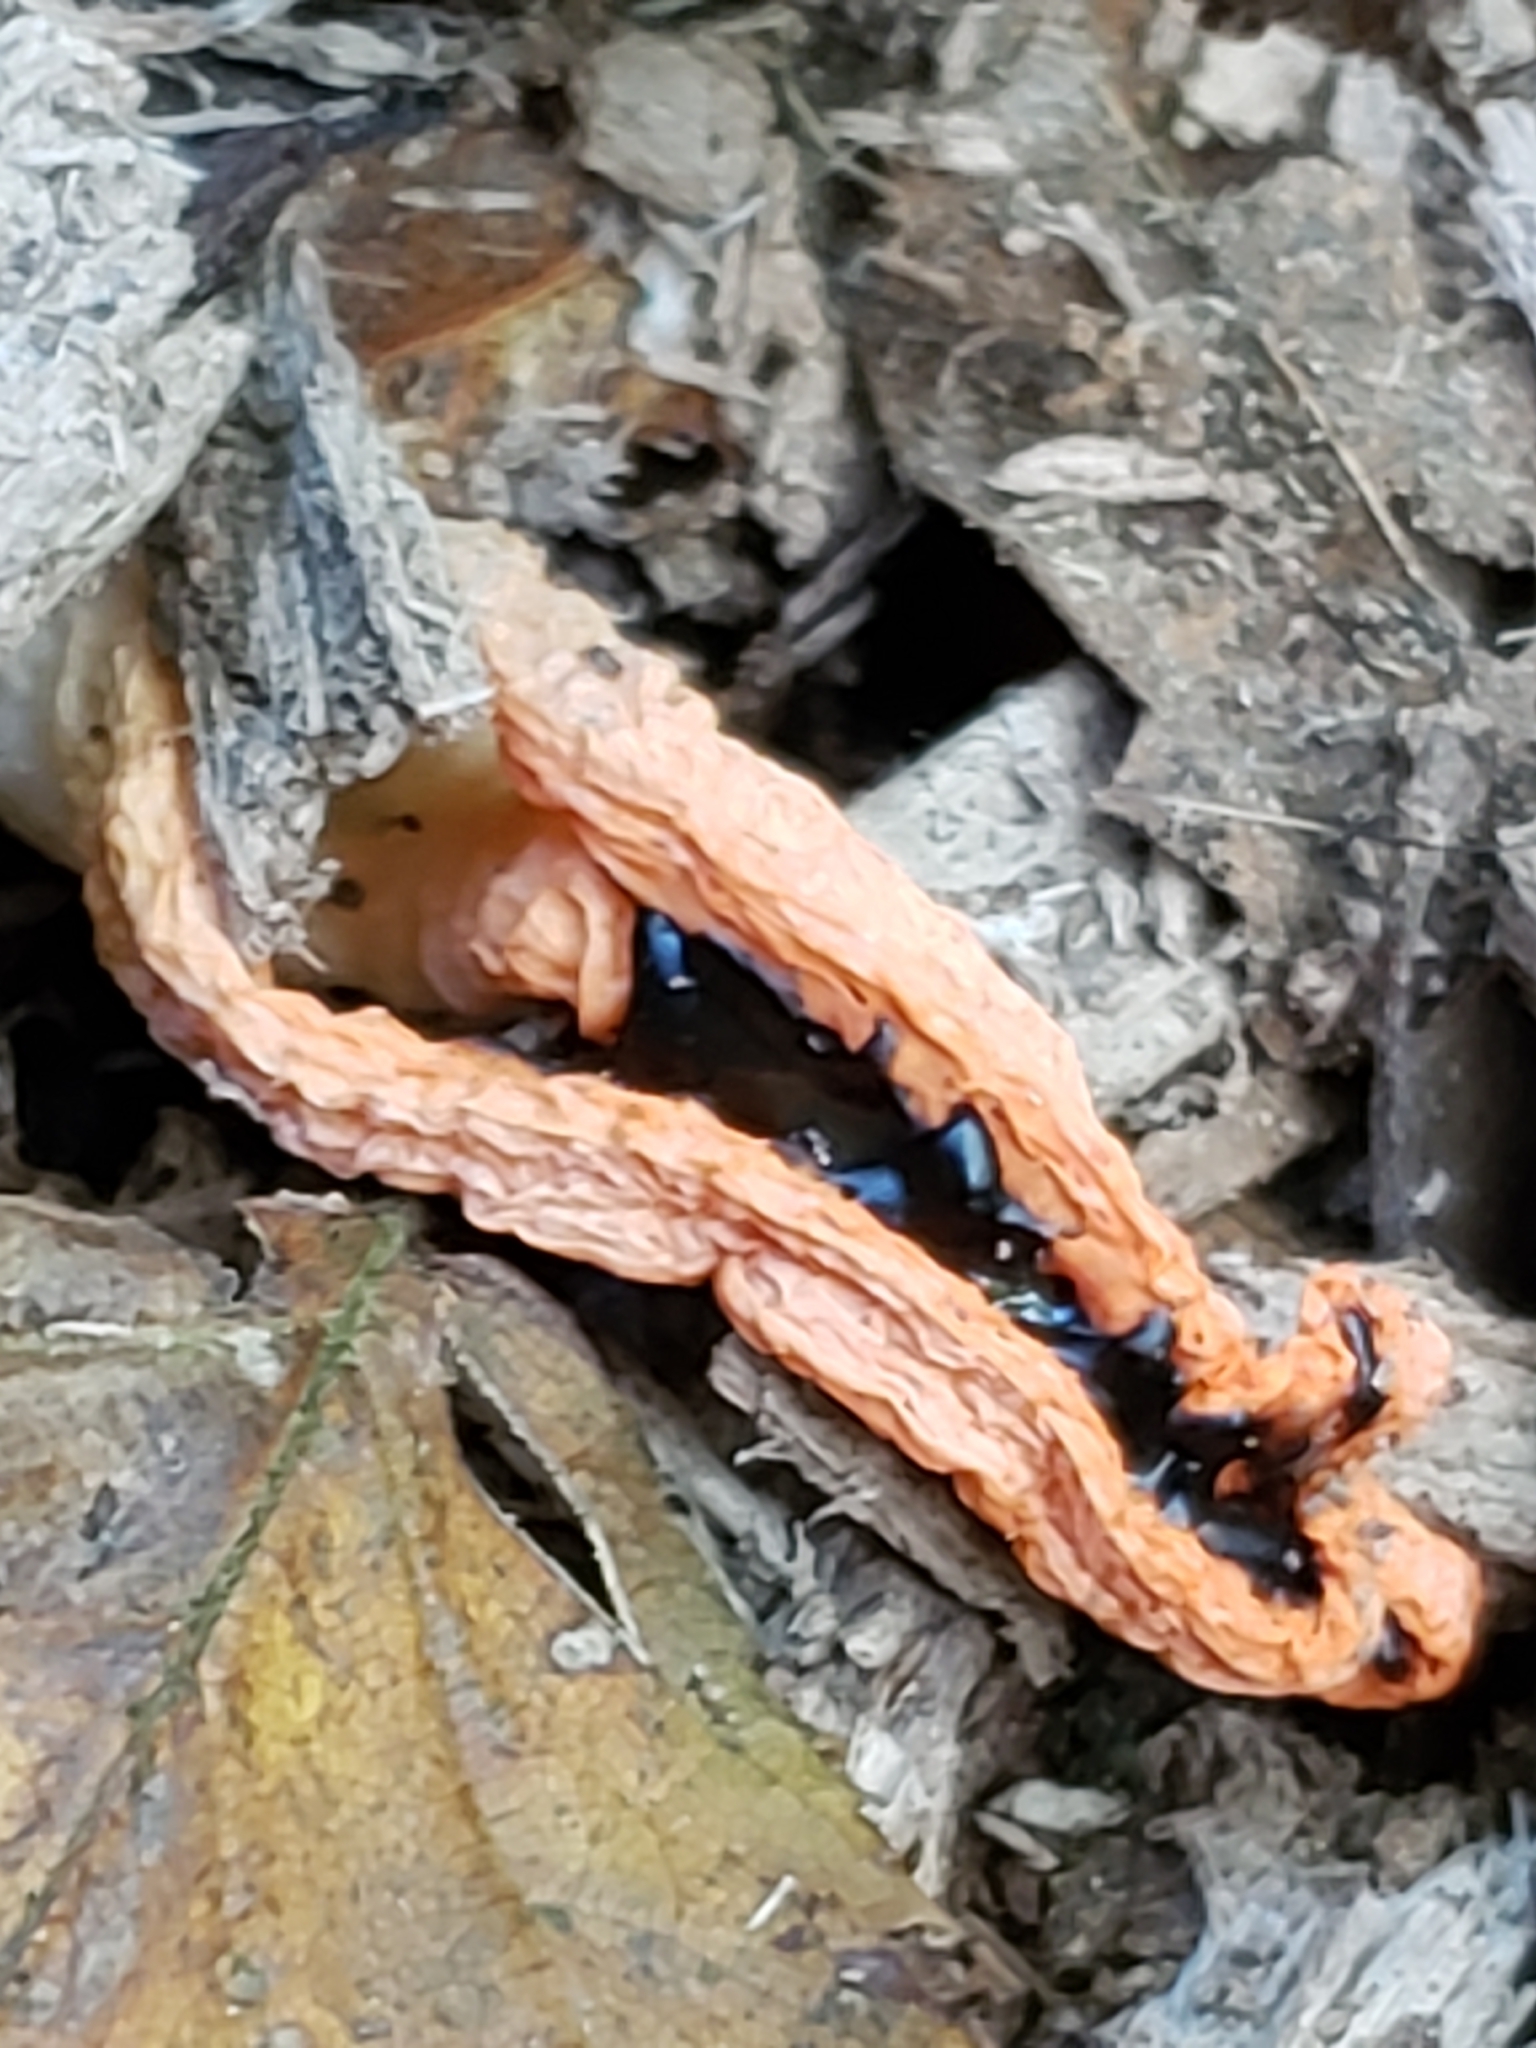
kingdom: Fungi
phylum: Basidiomycota
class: Agaricomycetes
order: Phallales
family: Phallaceae
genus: Pseudocolus
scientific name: Pseudocolus fusiformis
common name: Stinky squid
